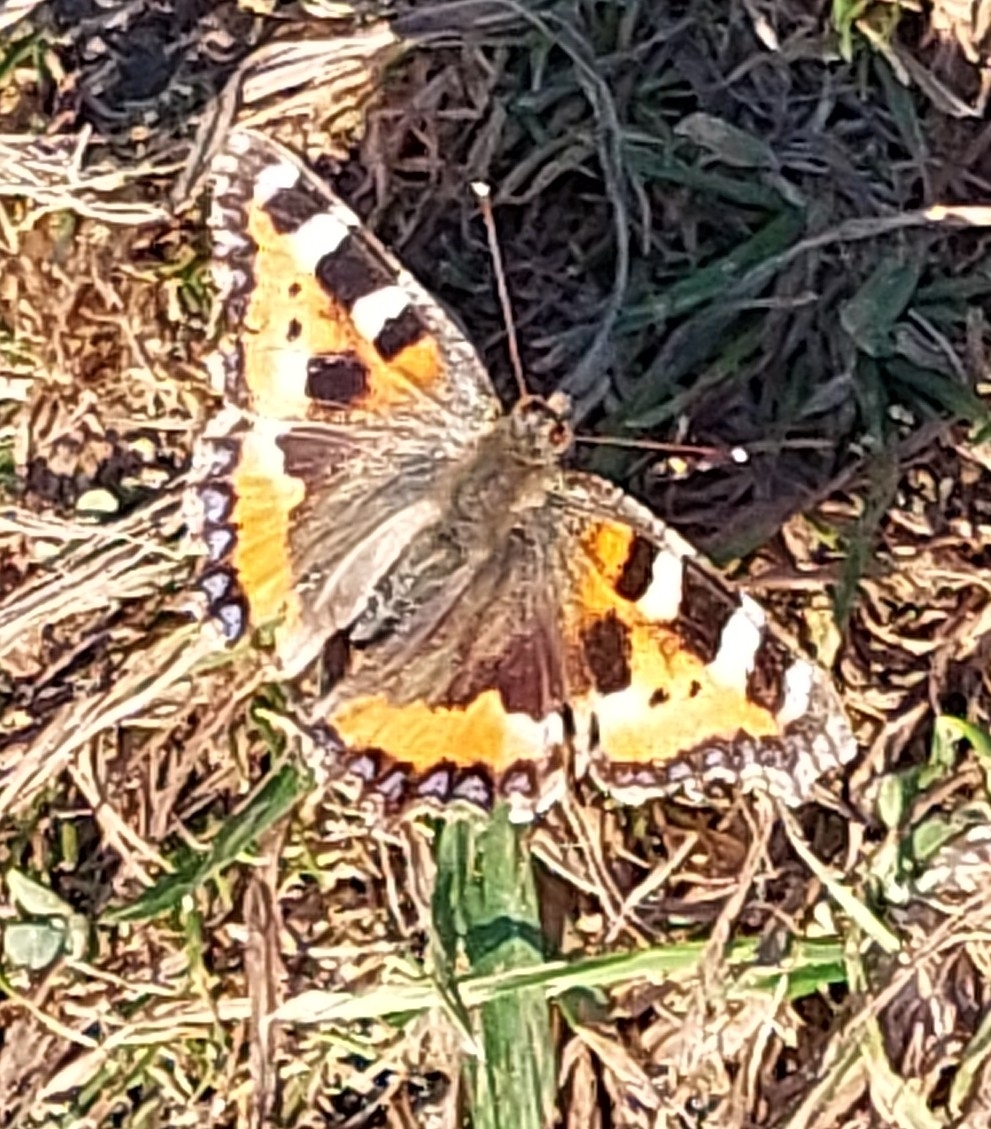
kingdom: Animalia
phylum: Arthropoda
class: Insecta
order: Lepidoptera
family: Nymphalidae
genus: Aglais
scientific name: Aglais urticae
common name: Small tortoiseshell
